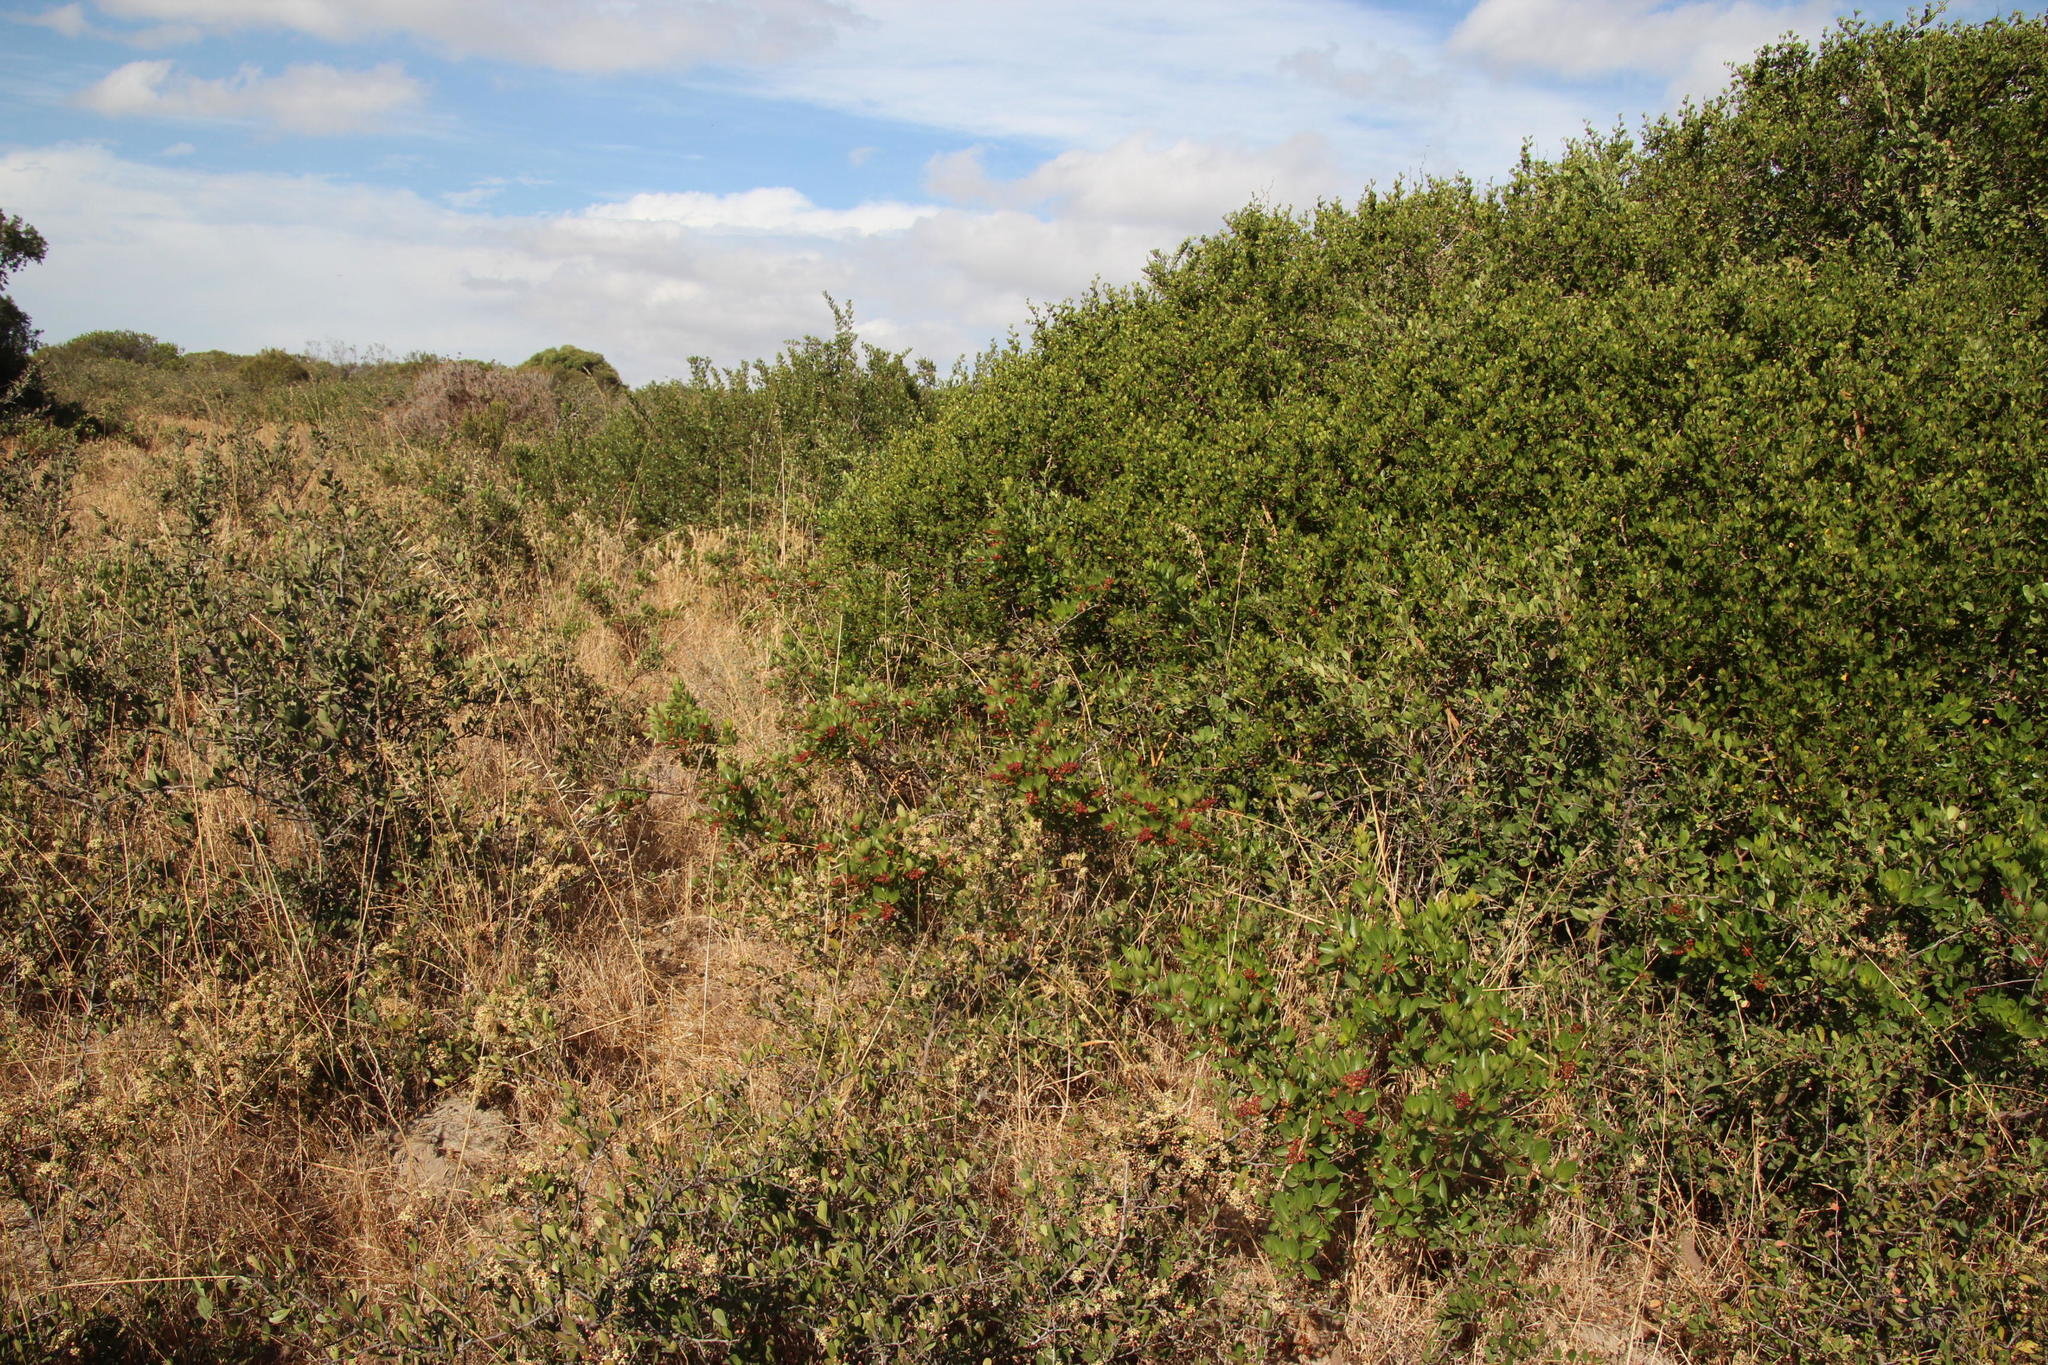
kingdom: Plantae
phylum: Tracheophyta
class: Magnoliopsida
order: Sapindales
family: Anacardiaceae
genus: Searsia
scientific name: Searsia laevigata
